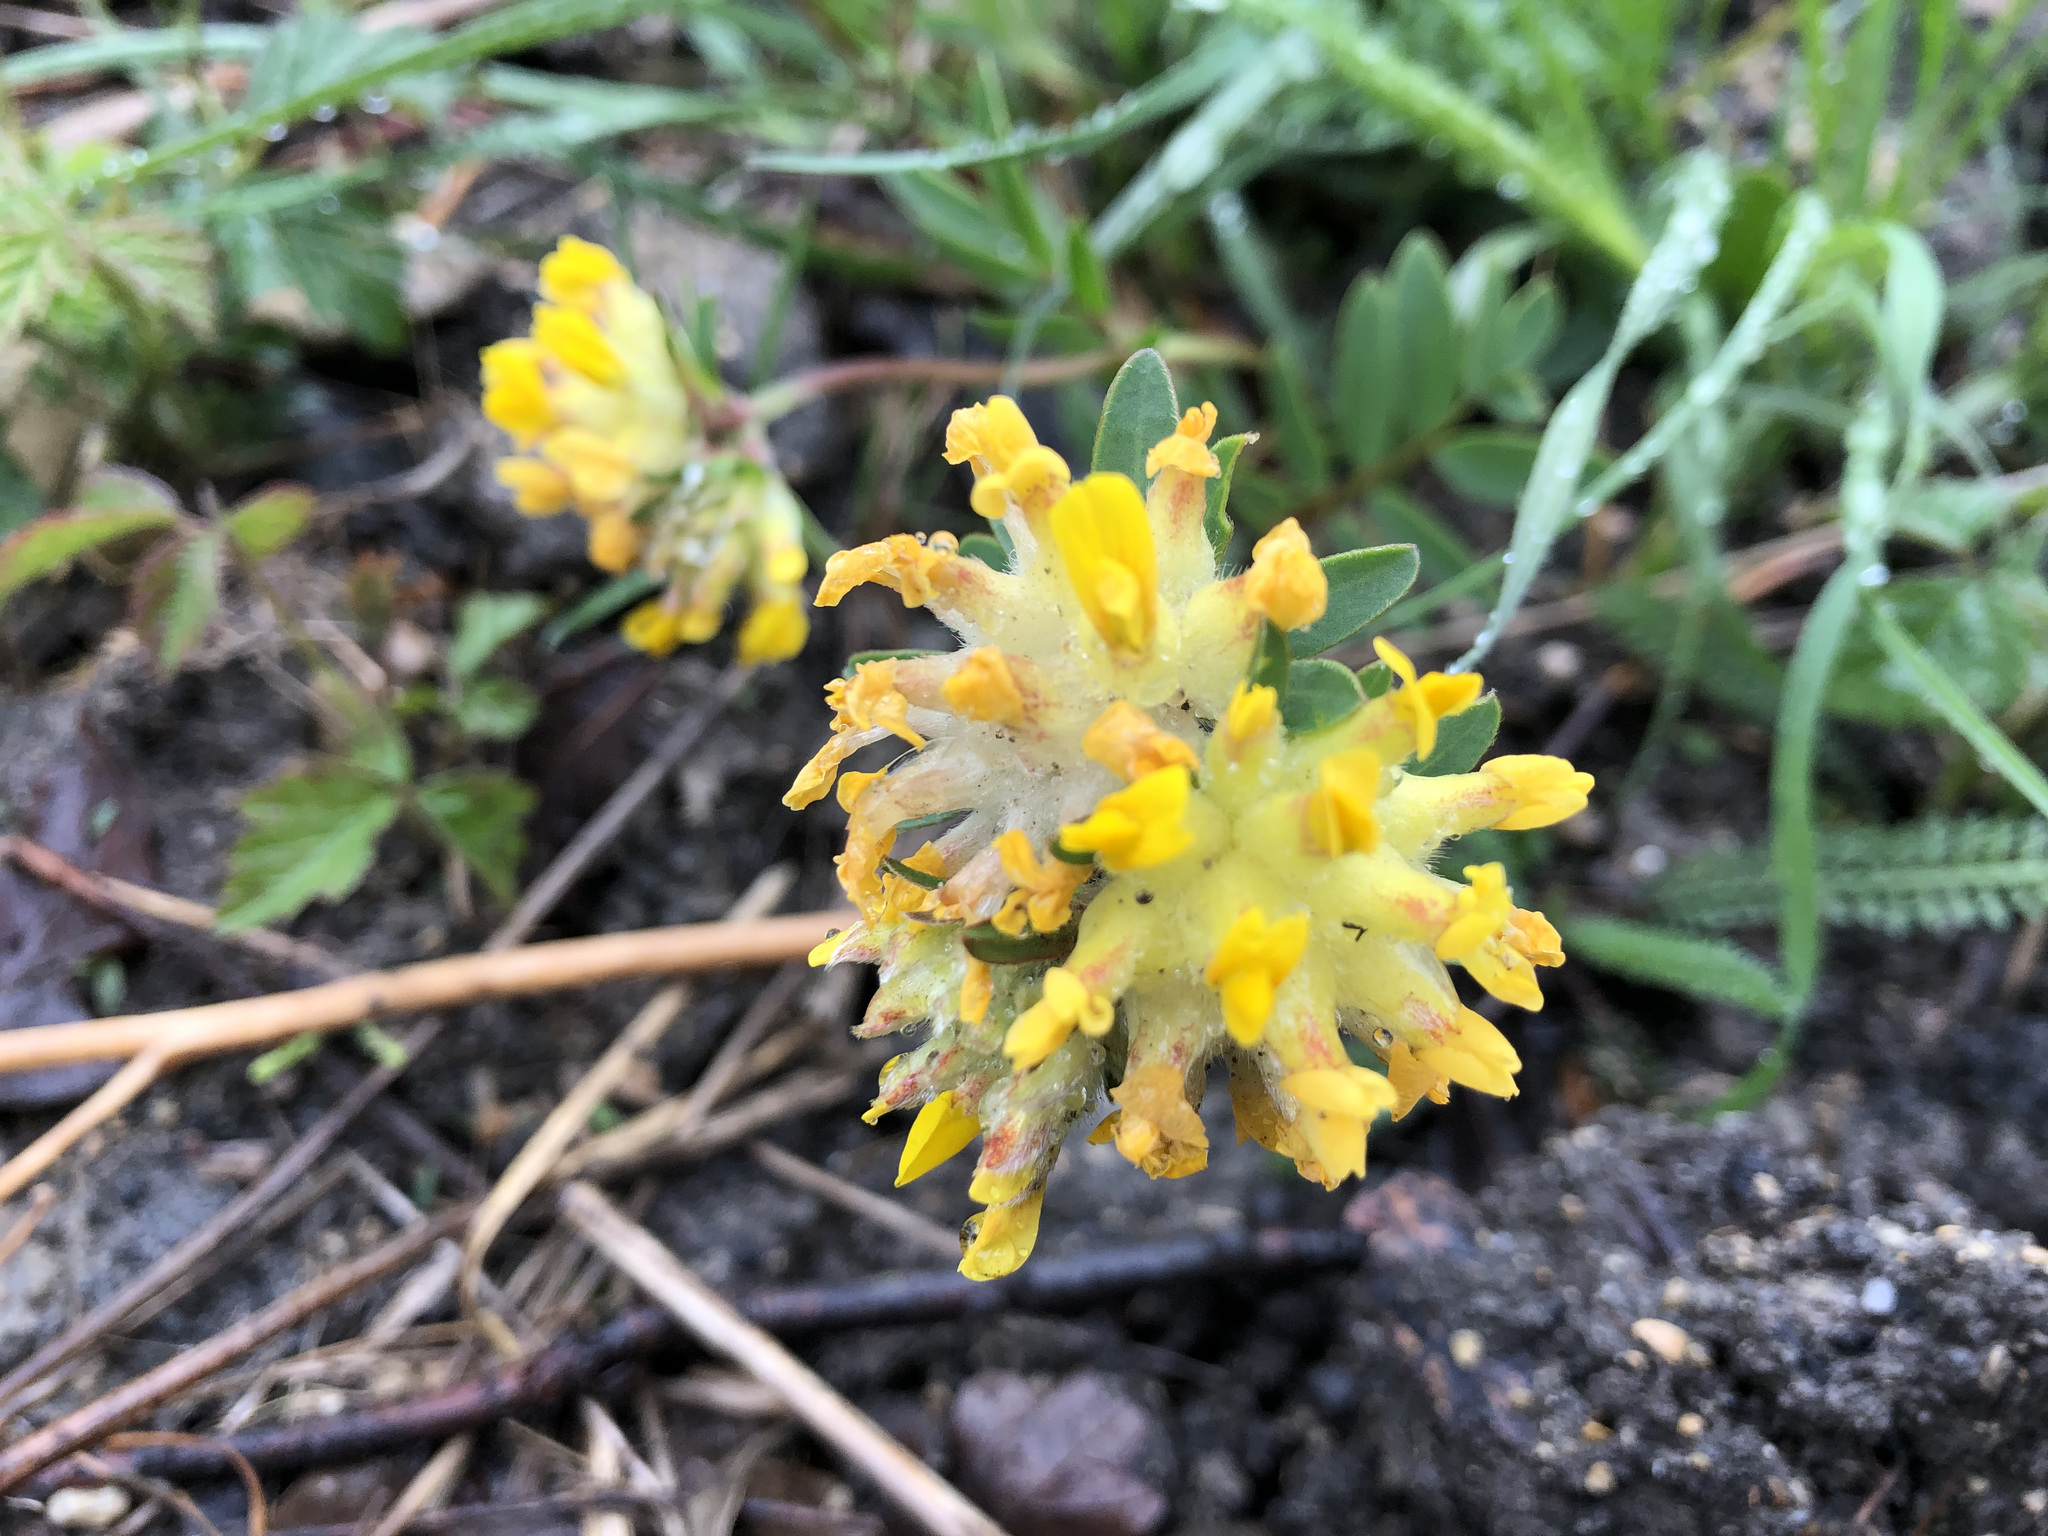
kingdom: Plantae
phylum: Tracheophyta
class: Magnoliopsida
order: Fabales
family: Fabaceae
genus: Anthyllis
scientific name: Anthyllis vulneraria
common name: Kidney vetch
